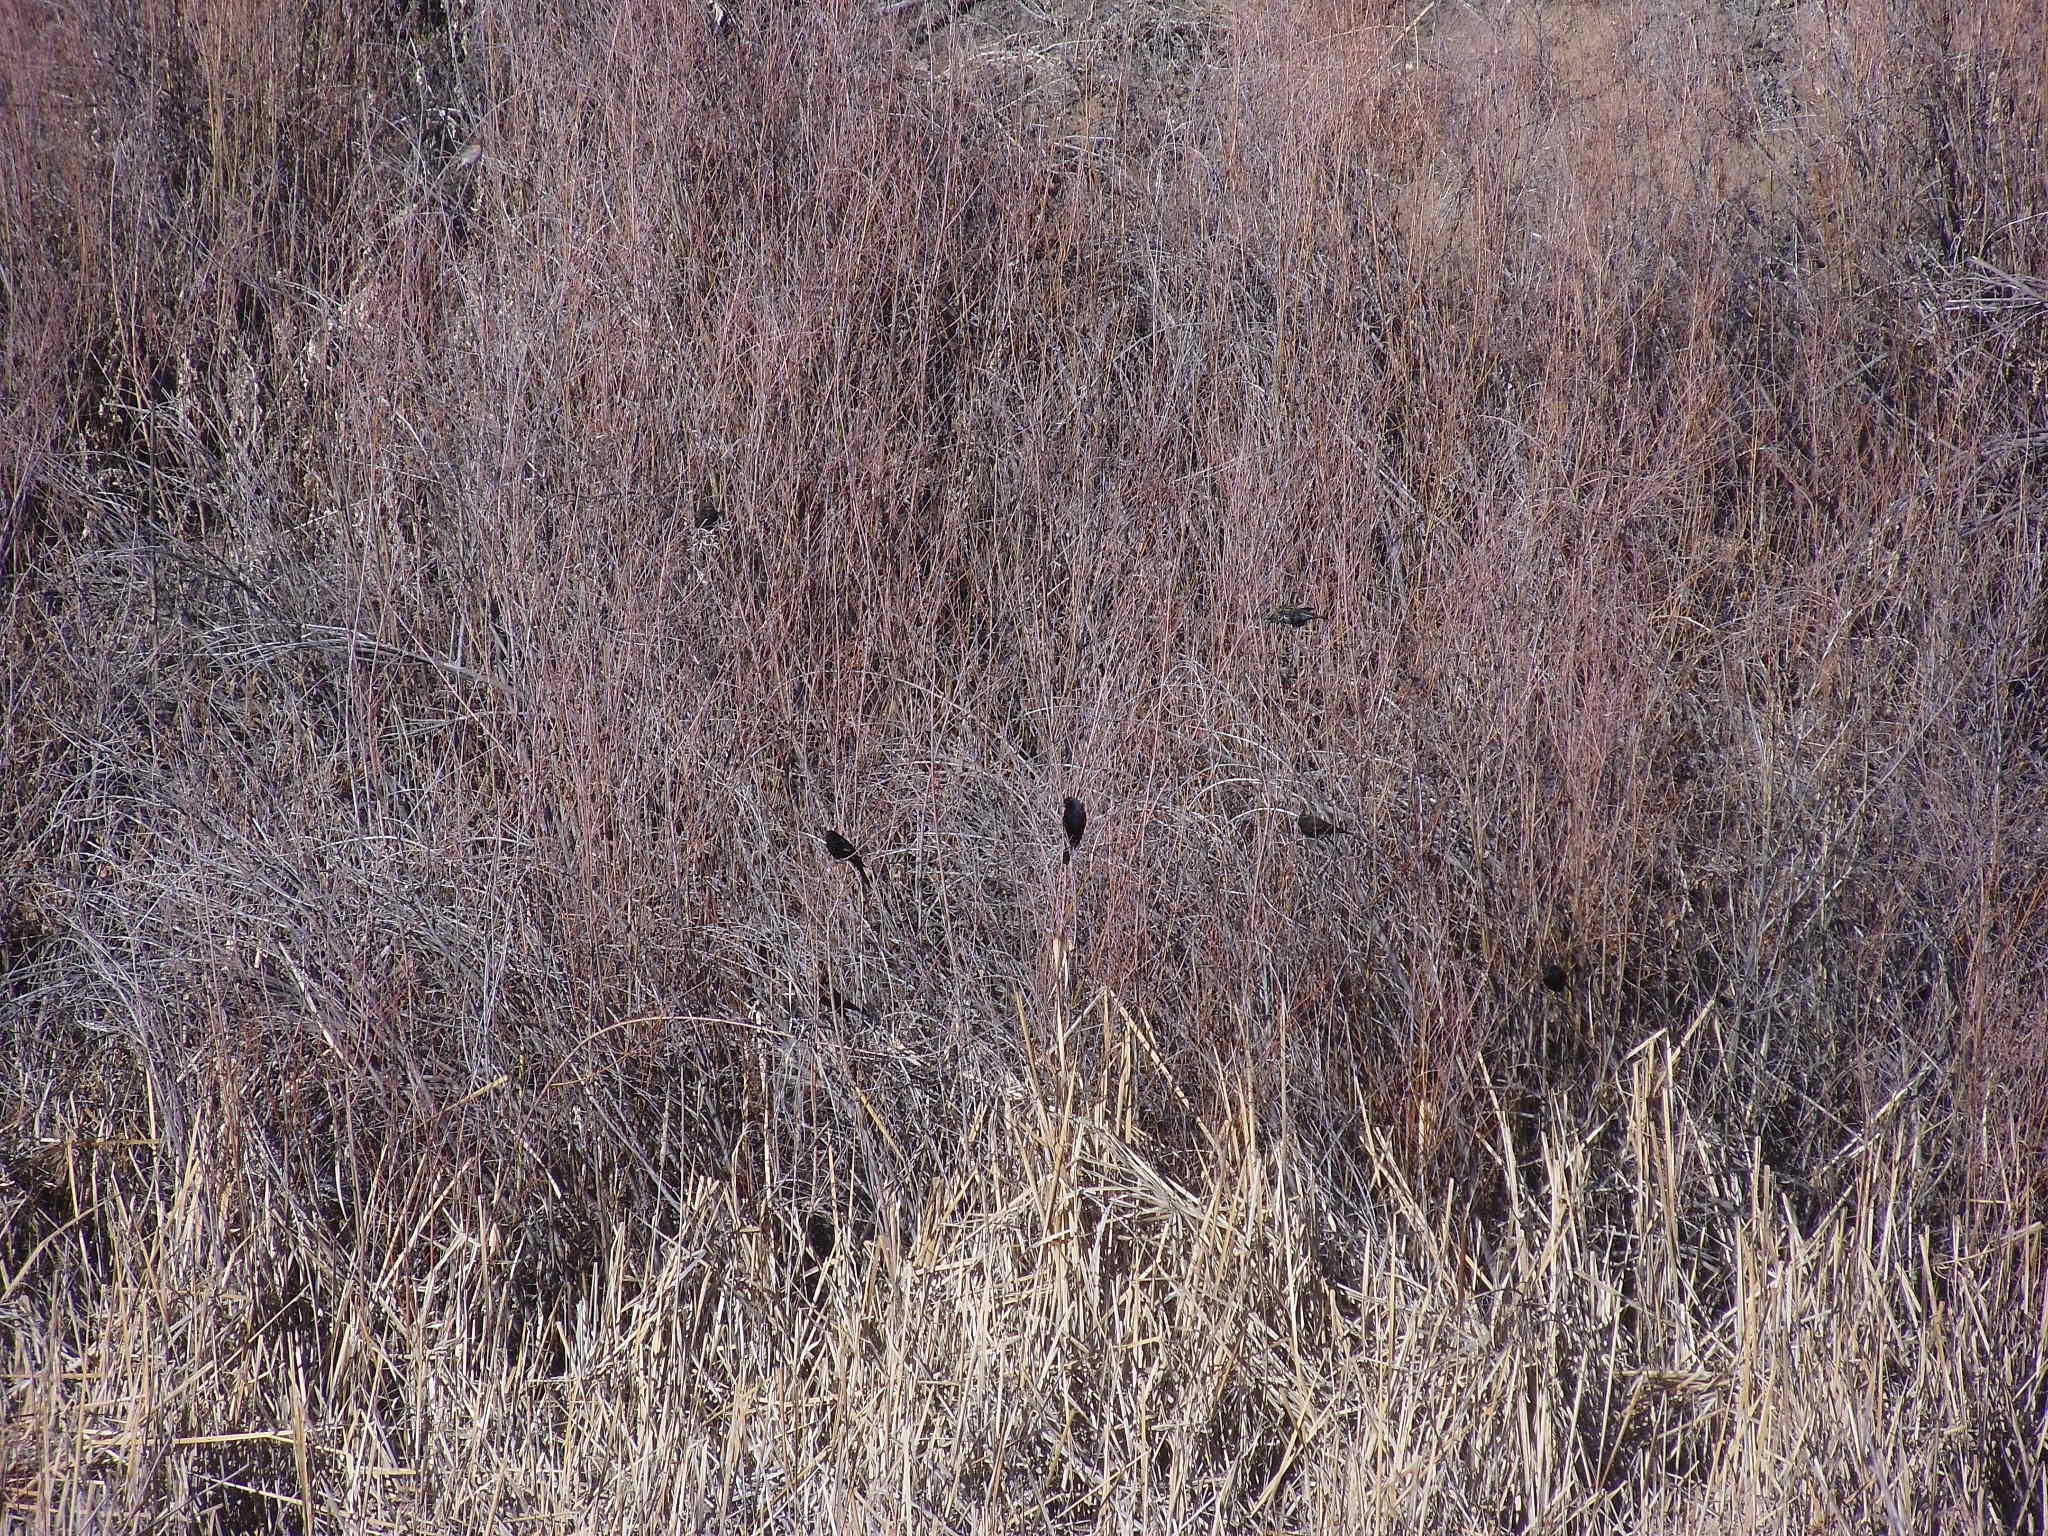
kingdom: Animalia
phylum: Chordata
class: Aves
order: Passeriformes
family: Icteridae
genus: Agelaius
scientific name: Agelaius phoeniceus
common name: Red-winged blackbird
